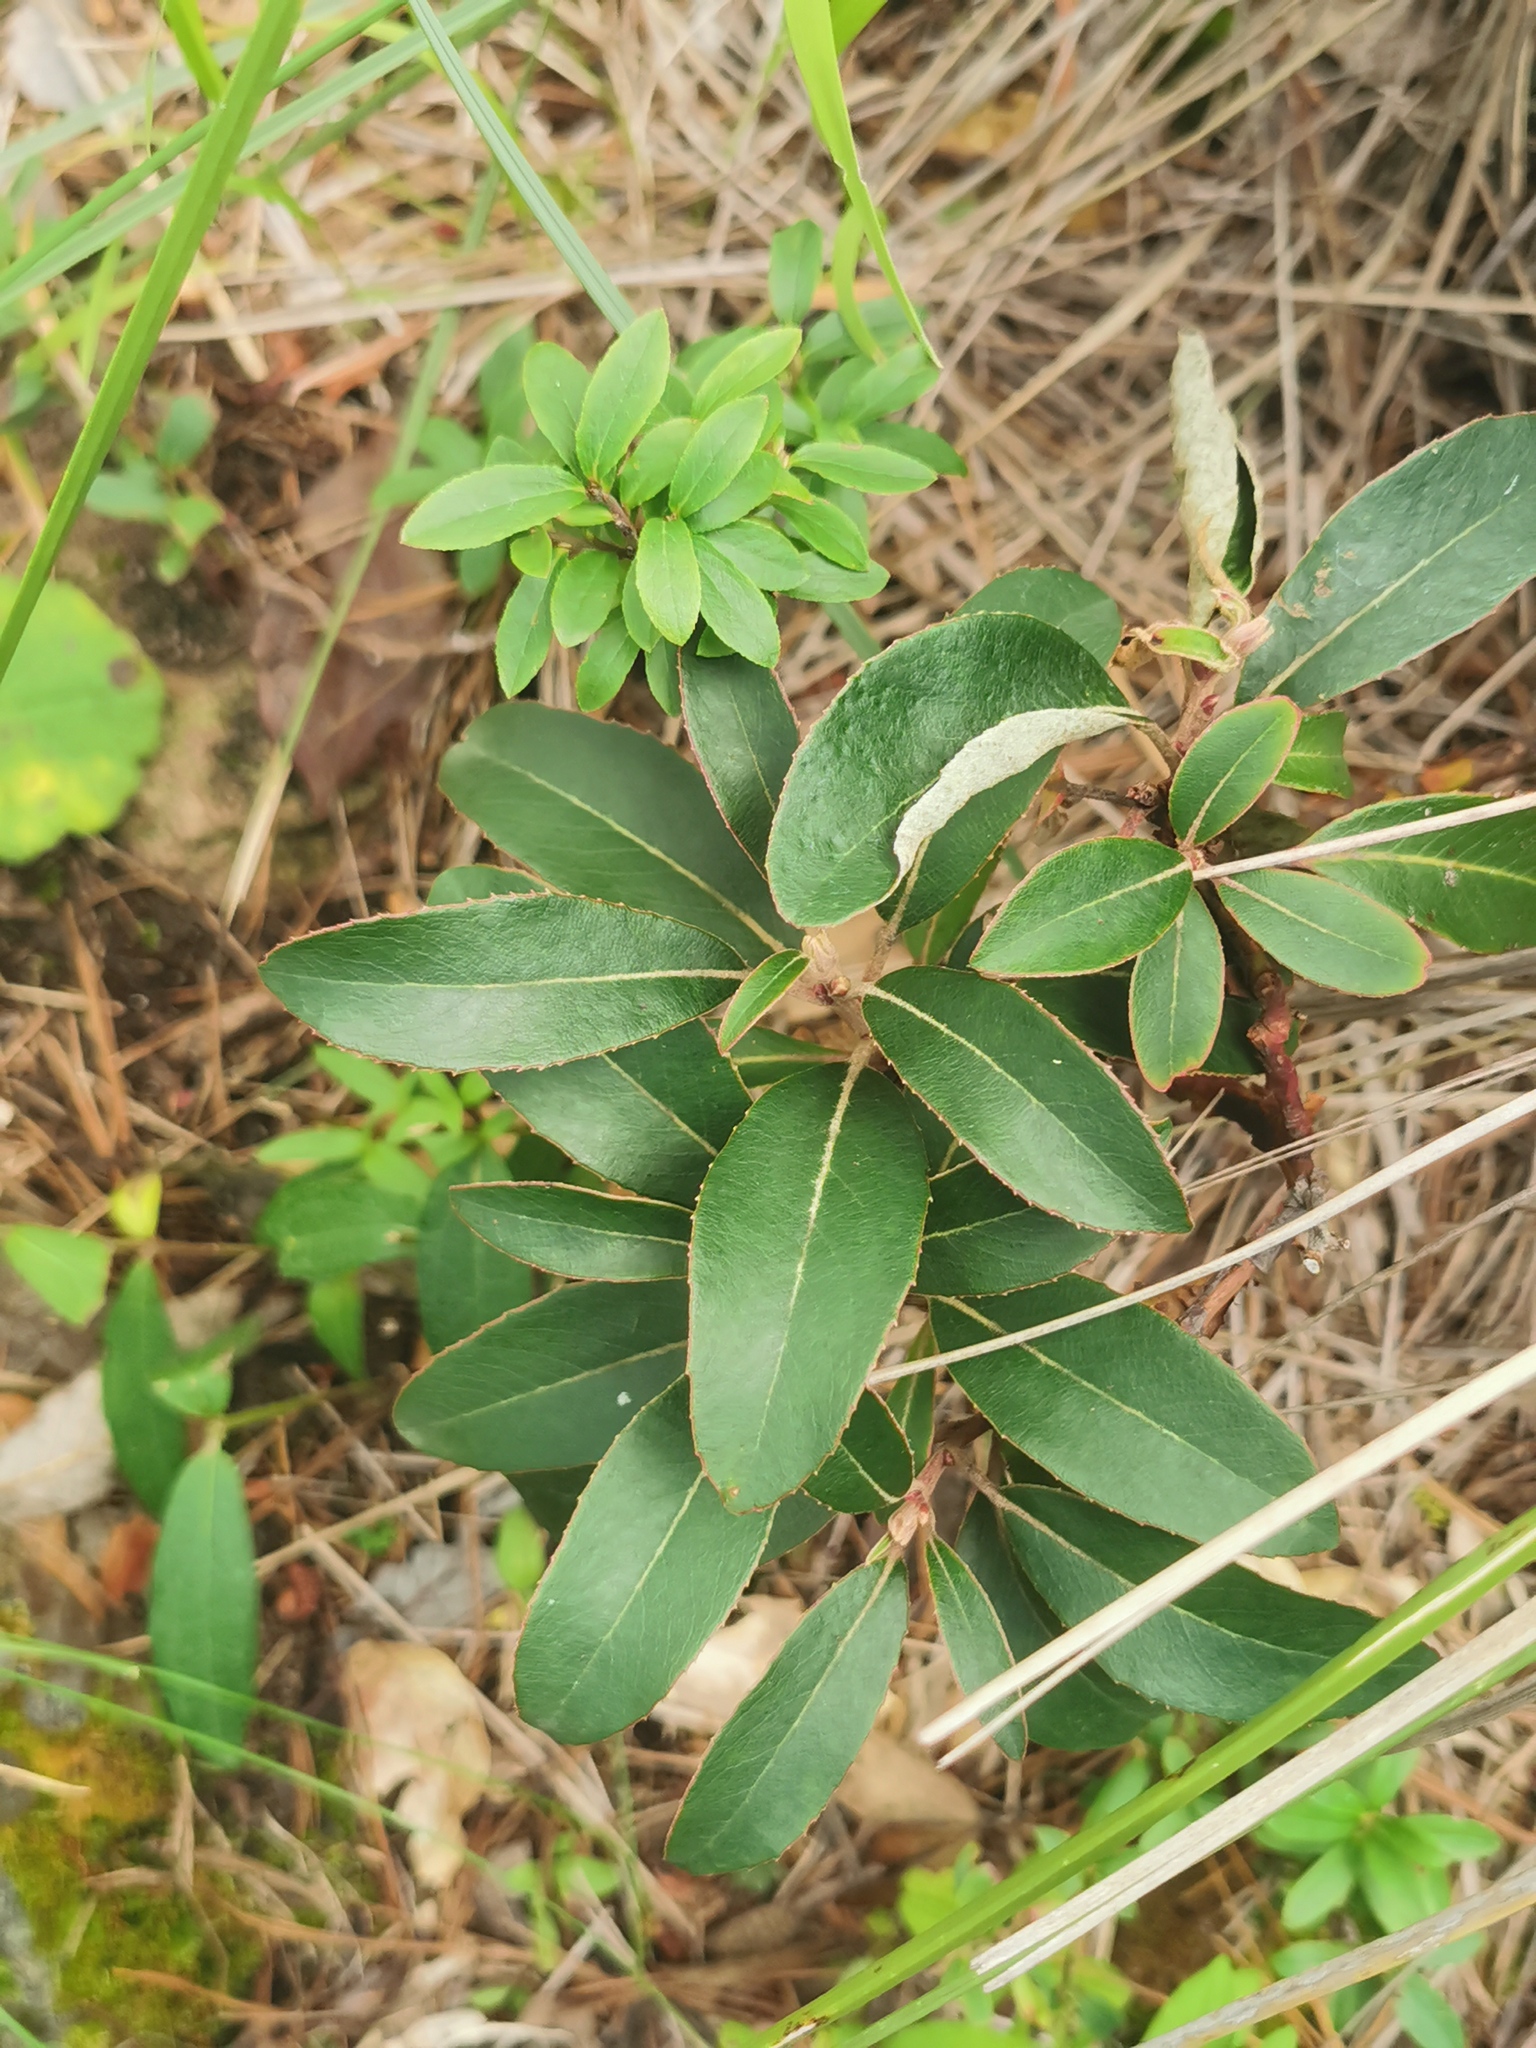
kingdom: Plantae
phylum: Tracheophyta
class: Magnoliopsida
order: Ericales
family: Ericaceae
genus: Arbutus
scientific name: Arbutus mollis
